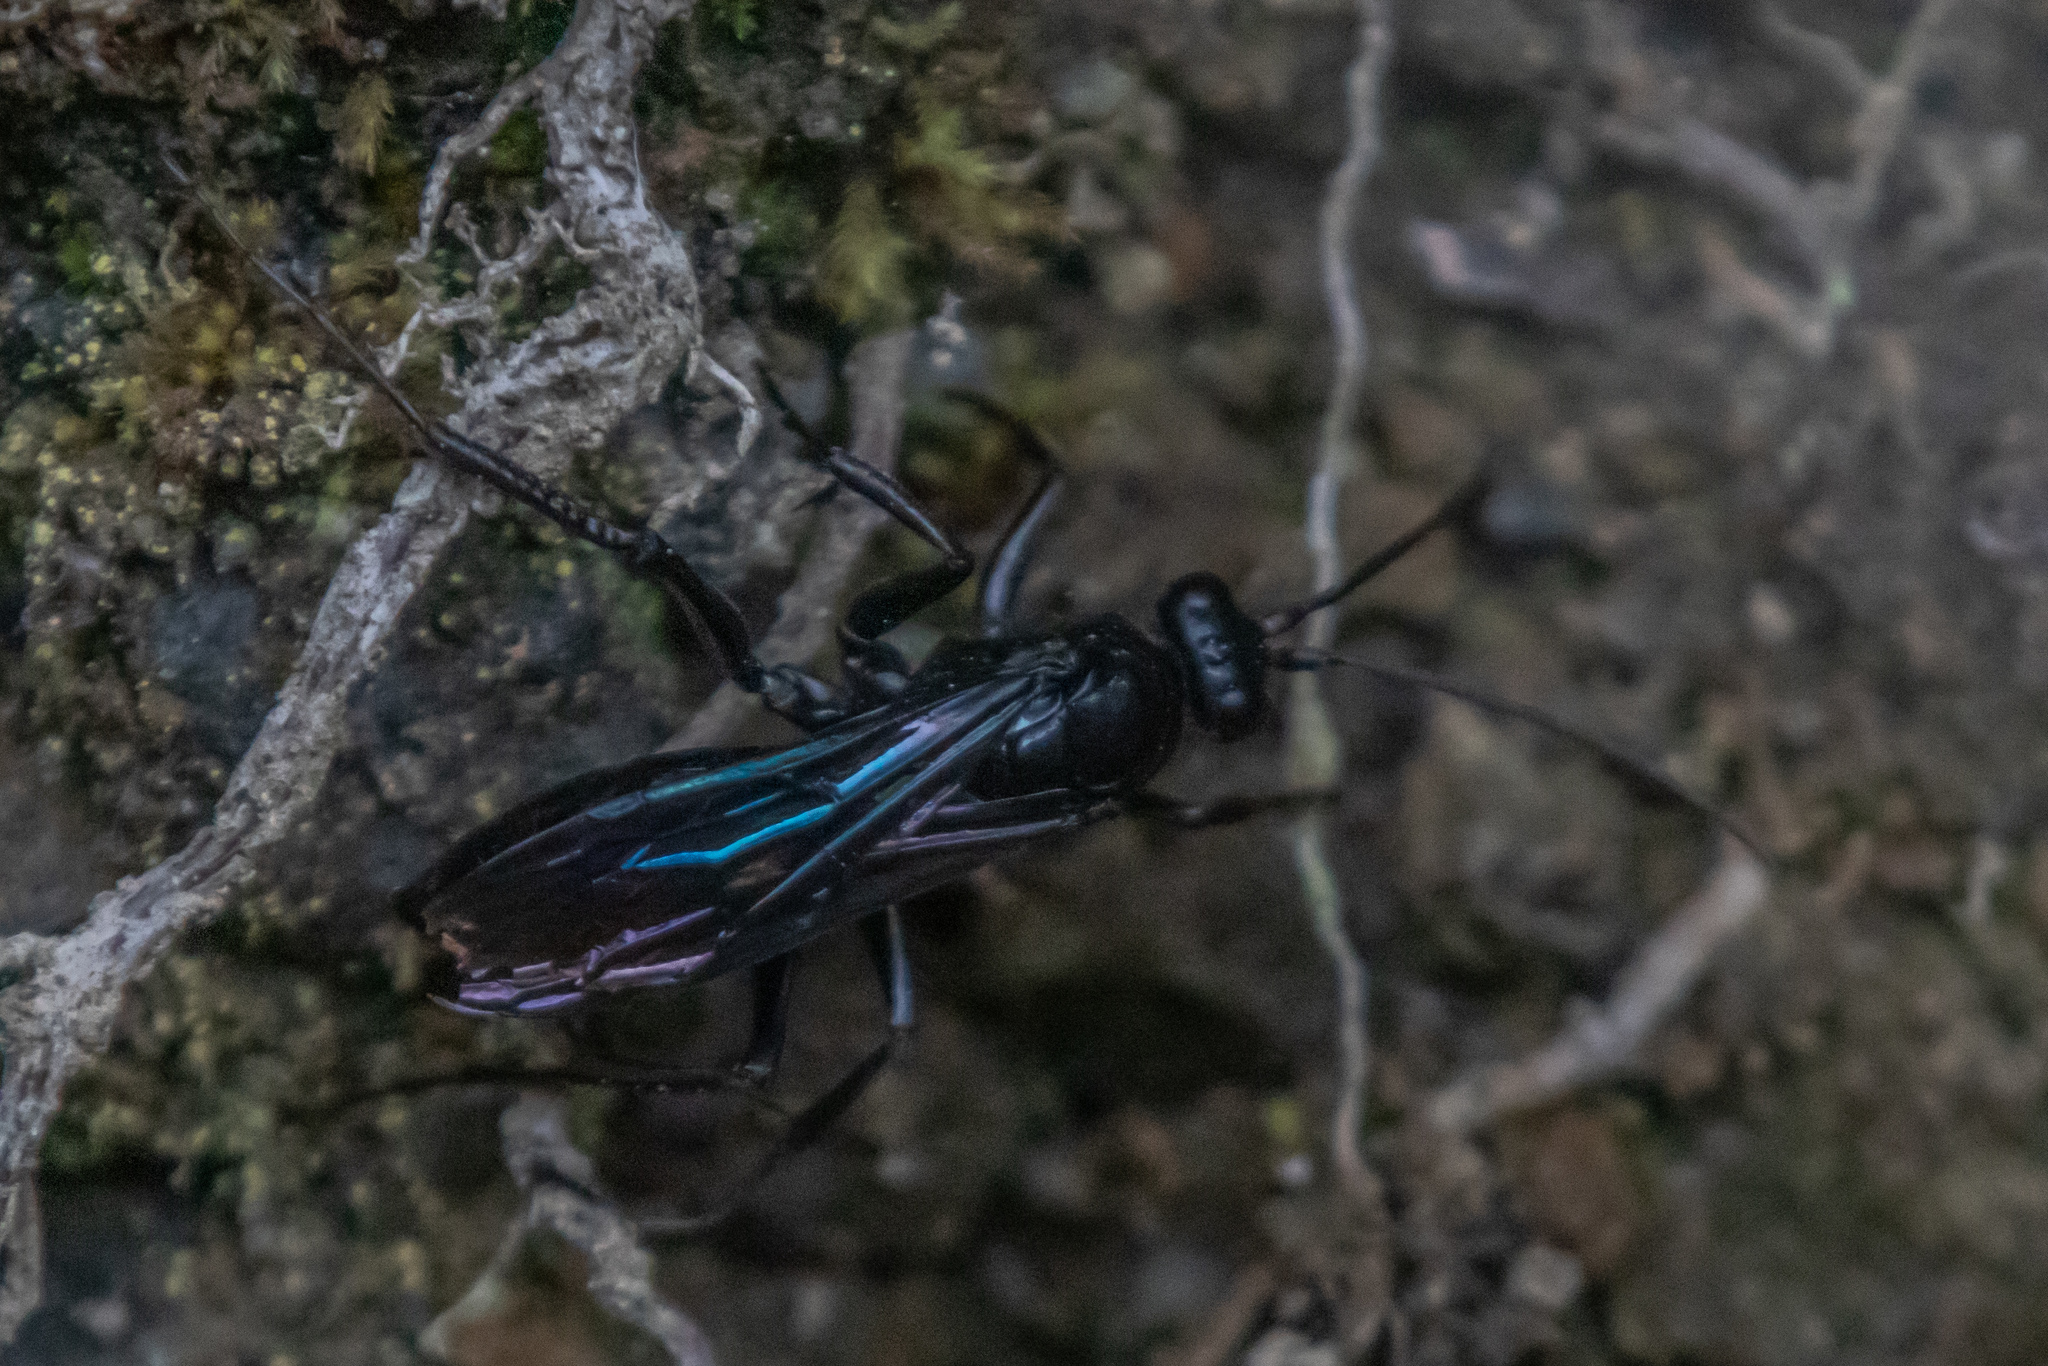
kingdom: Animalia
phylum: Arthropoda
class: Insecta
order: Hymenoptera
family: Pompilidae
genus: Priocnemis
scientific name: Priocnemis monachus
